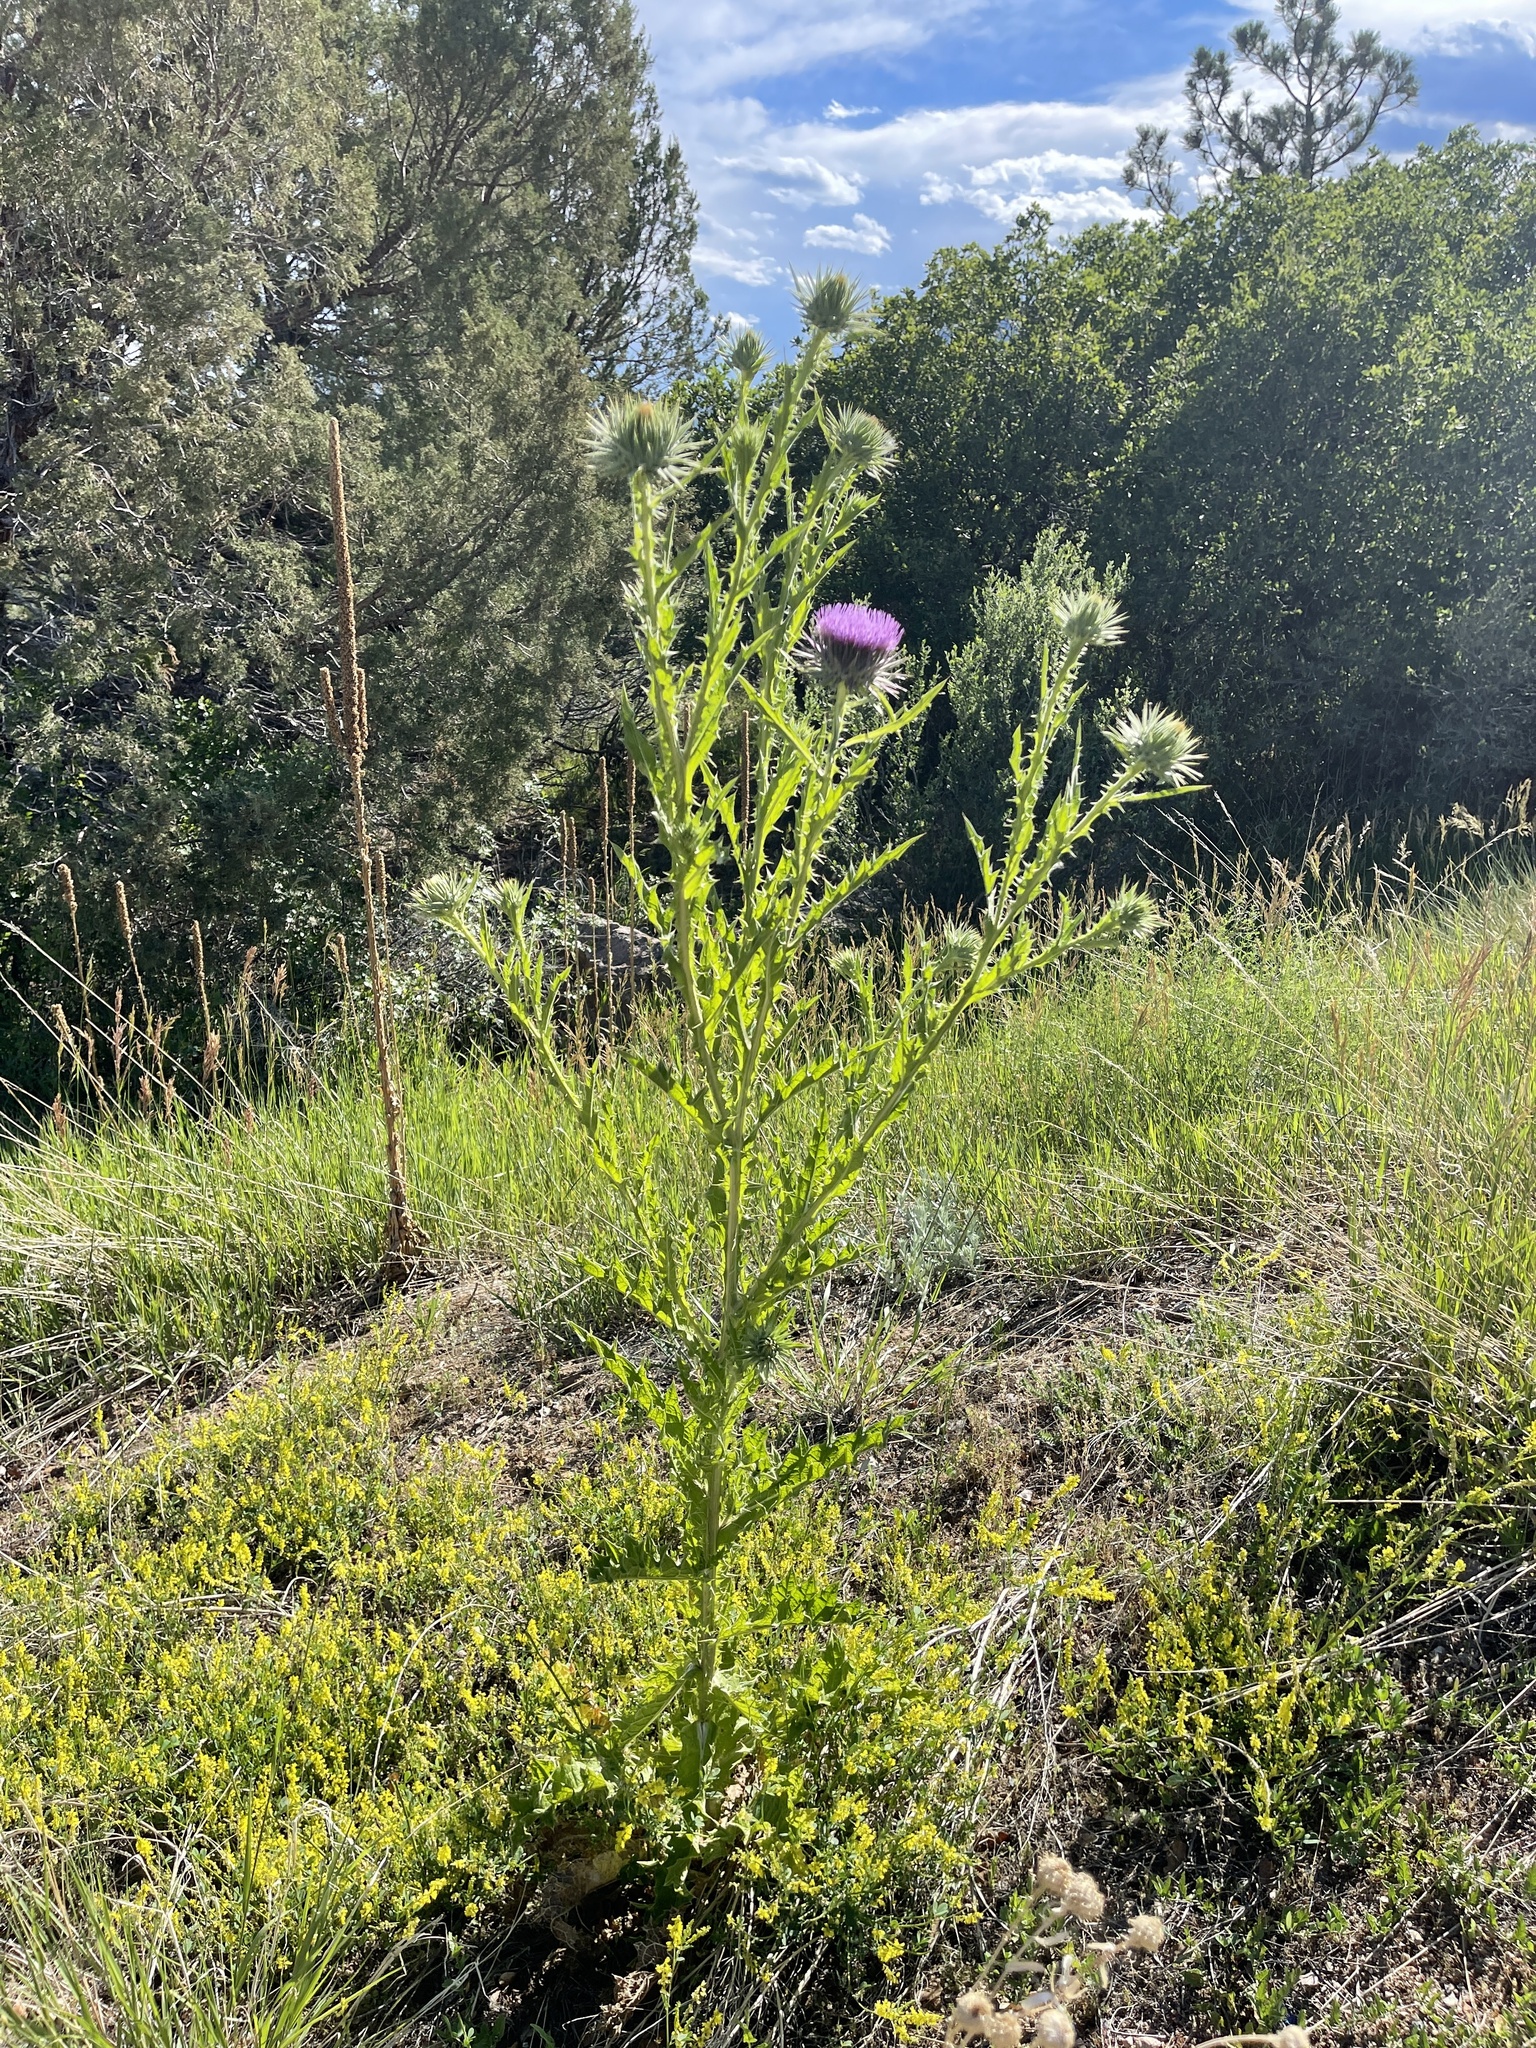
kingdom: Plantae
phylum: Tracheophyta
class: Magnoliopsida
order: Asterales
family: Asteraceae
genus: Carduus
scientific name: Carduus nutans
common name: Musk thistle
